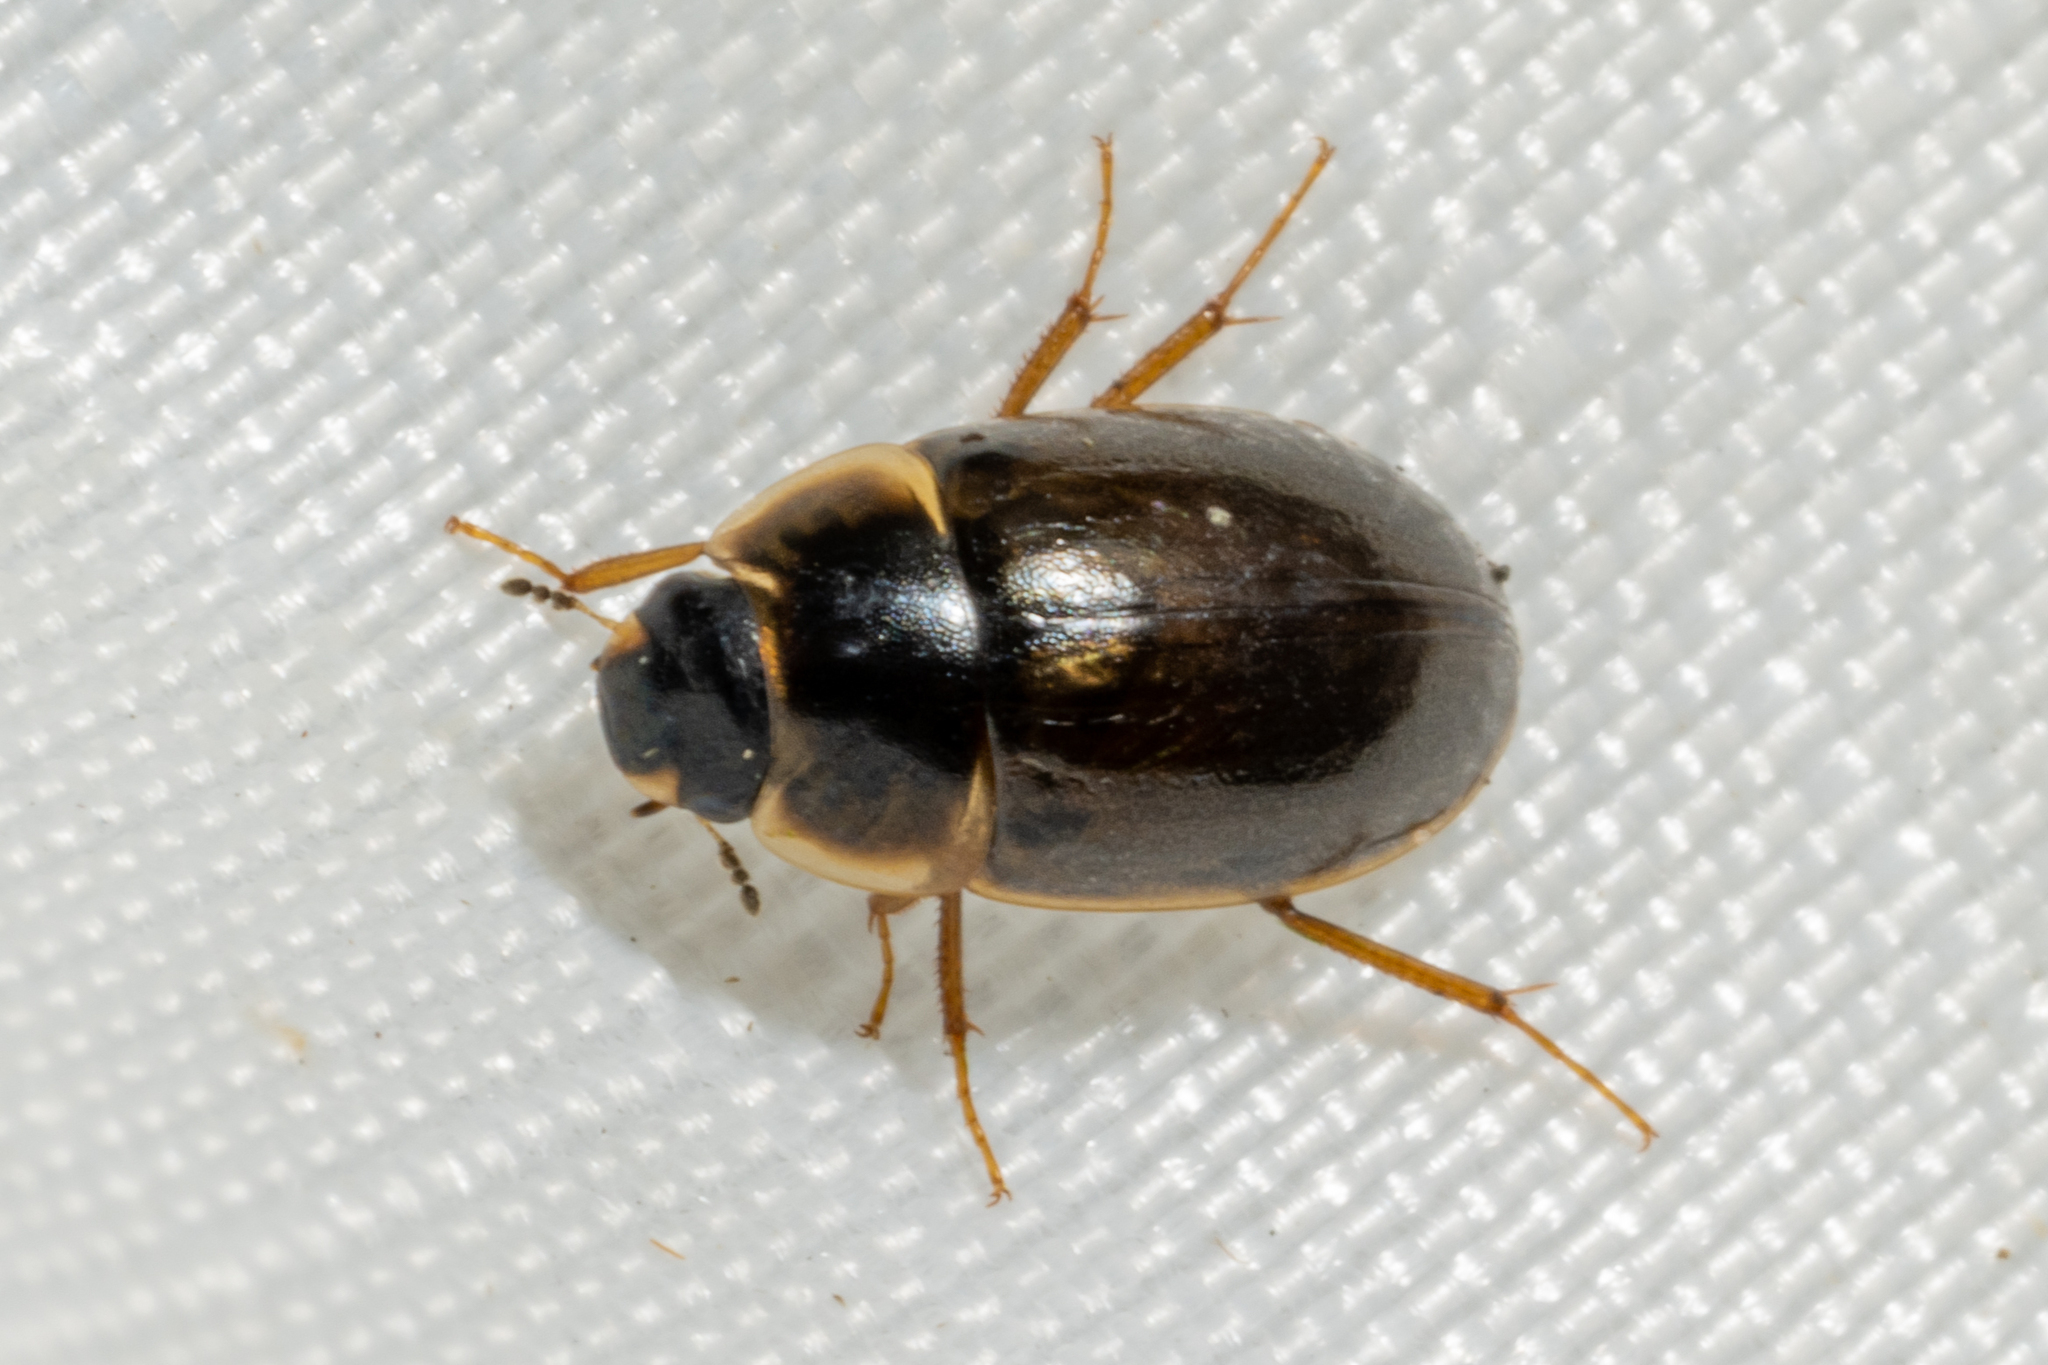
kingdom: Animalia
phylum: Arthropoda
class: Insecta
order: Coleoptera
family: Hydrophilidae
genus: Enochrus
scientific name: Enochrus
